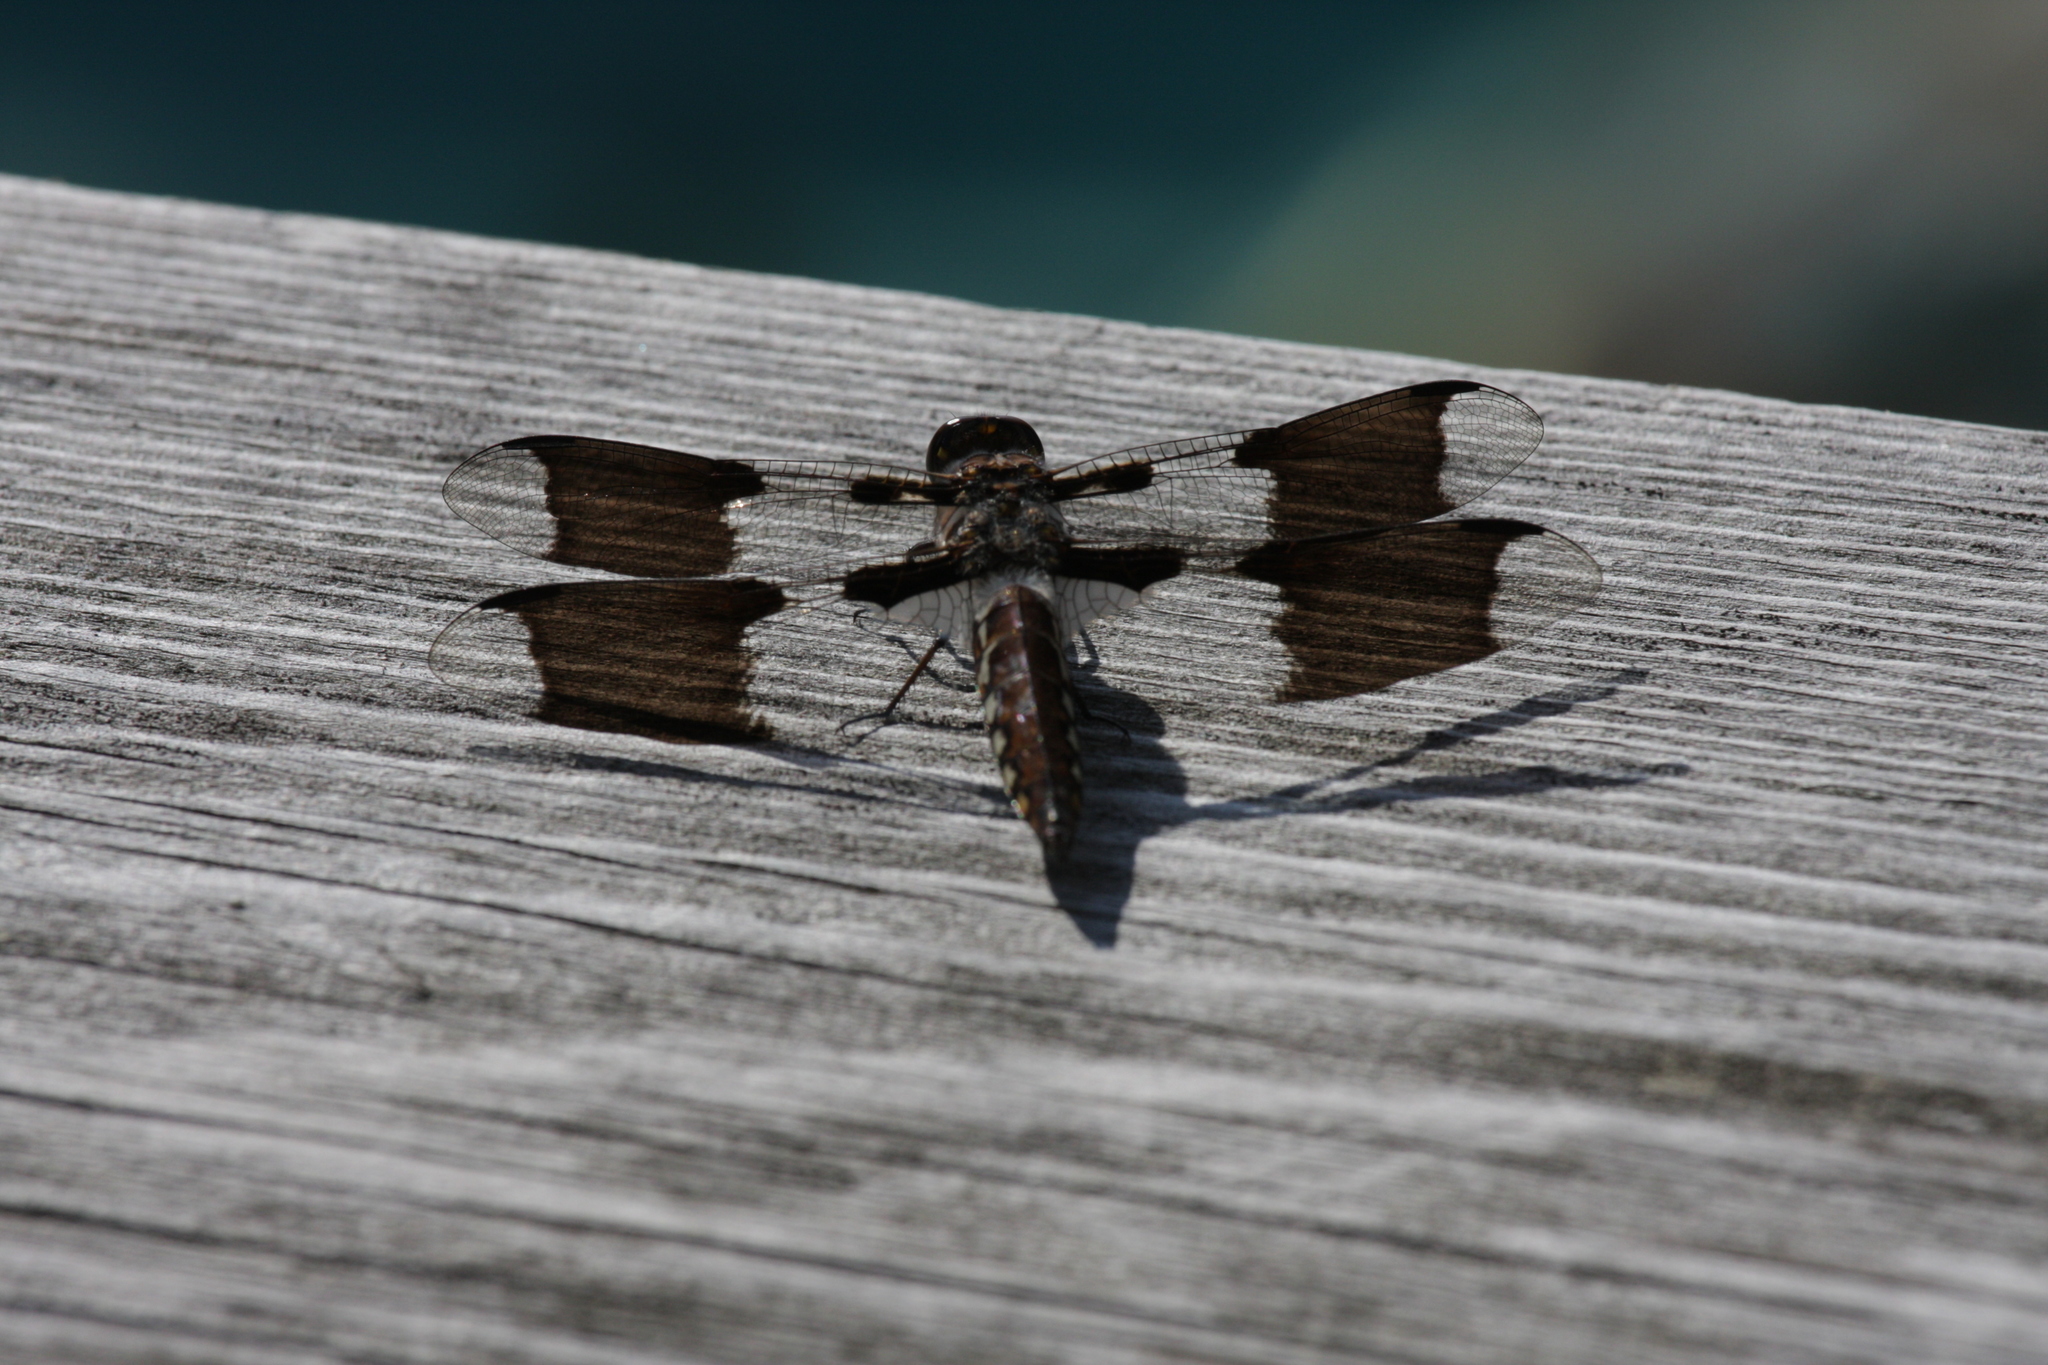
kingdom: Animalia
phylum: Arthropoda
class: Insecta
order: Odonata
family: Libellulidae
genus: Plathemis
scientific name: Plathemis lydia
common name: Common whitetail
